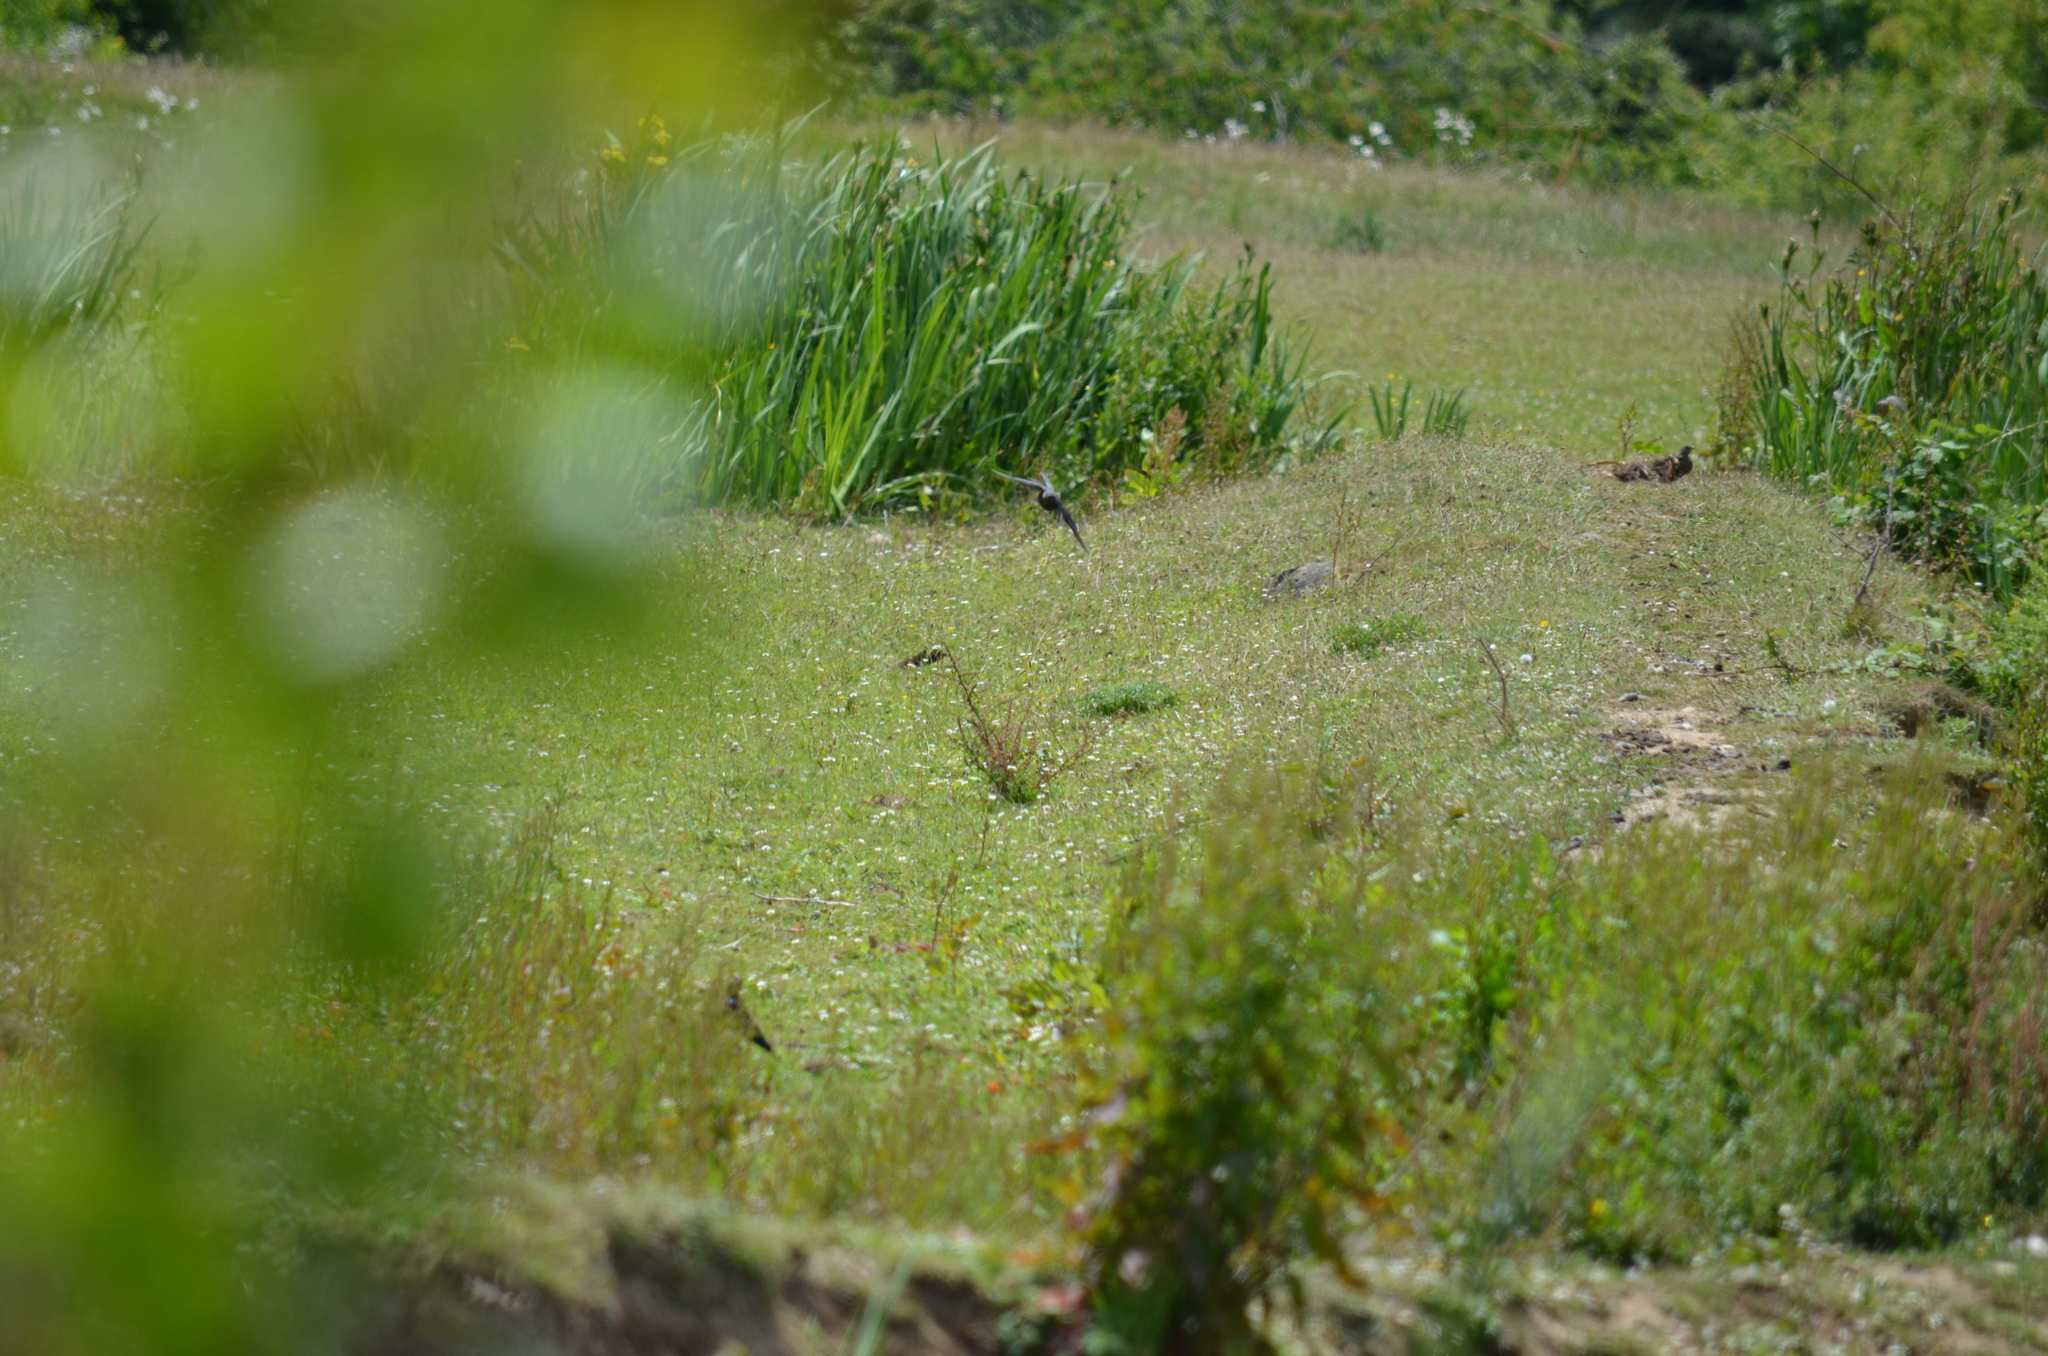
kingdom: Animalia
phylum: Chordata
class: Aves
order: Galliformes
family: Phasianidae
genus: Phasianus
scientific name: Phasianus colchicus
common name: Common pheasant
